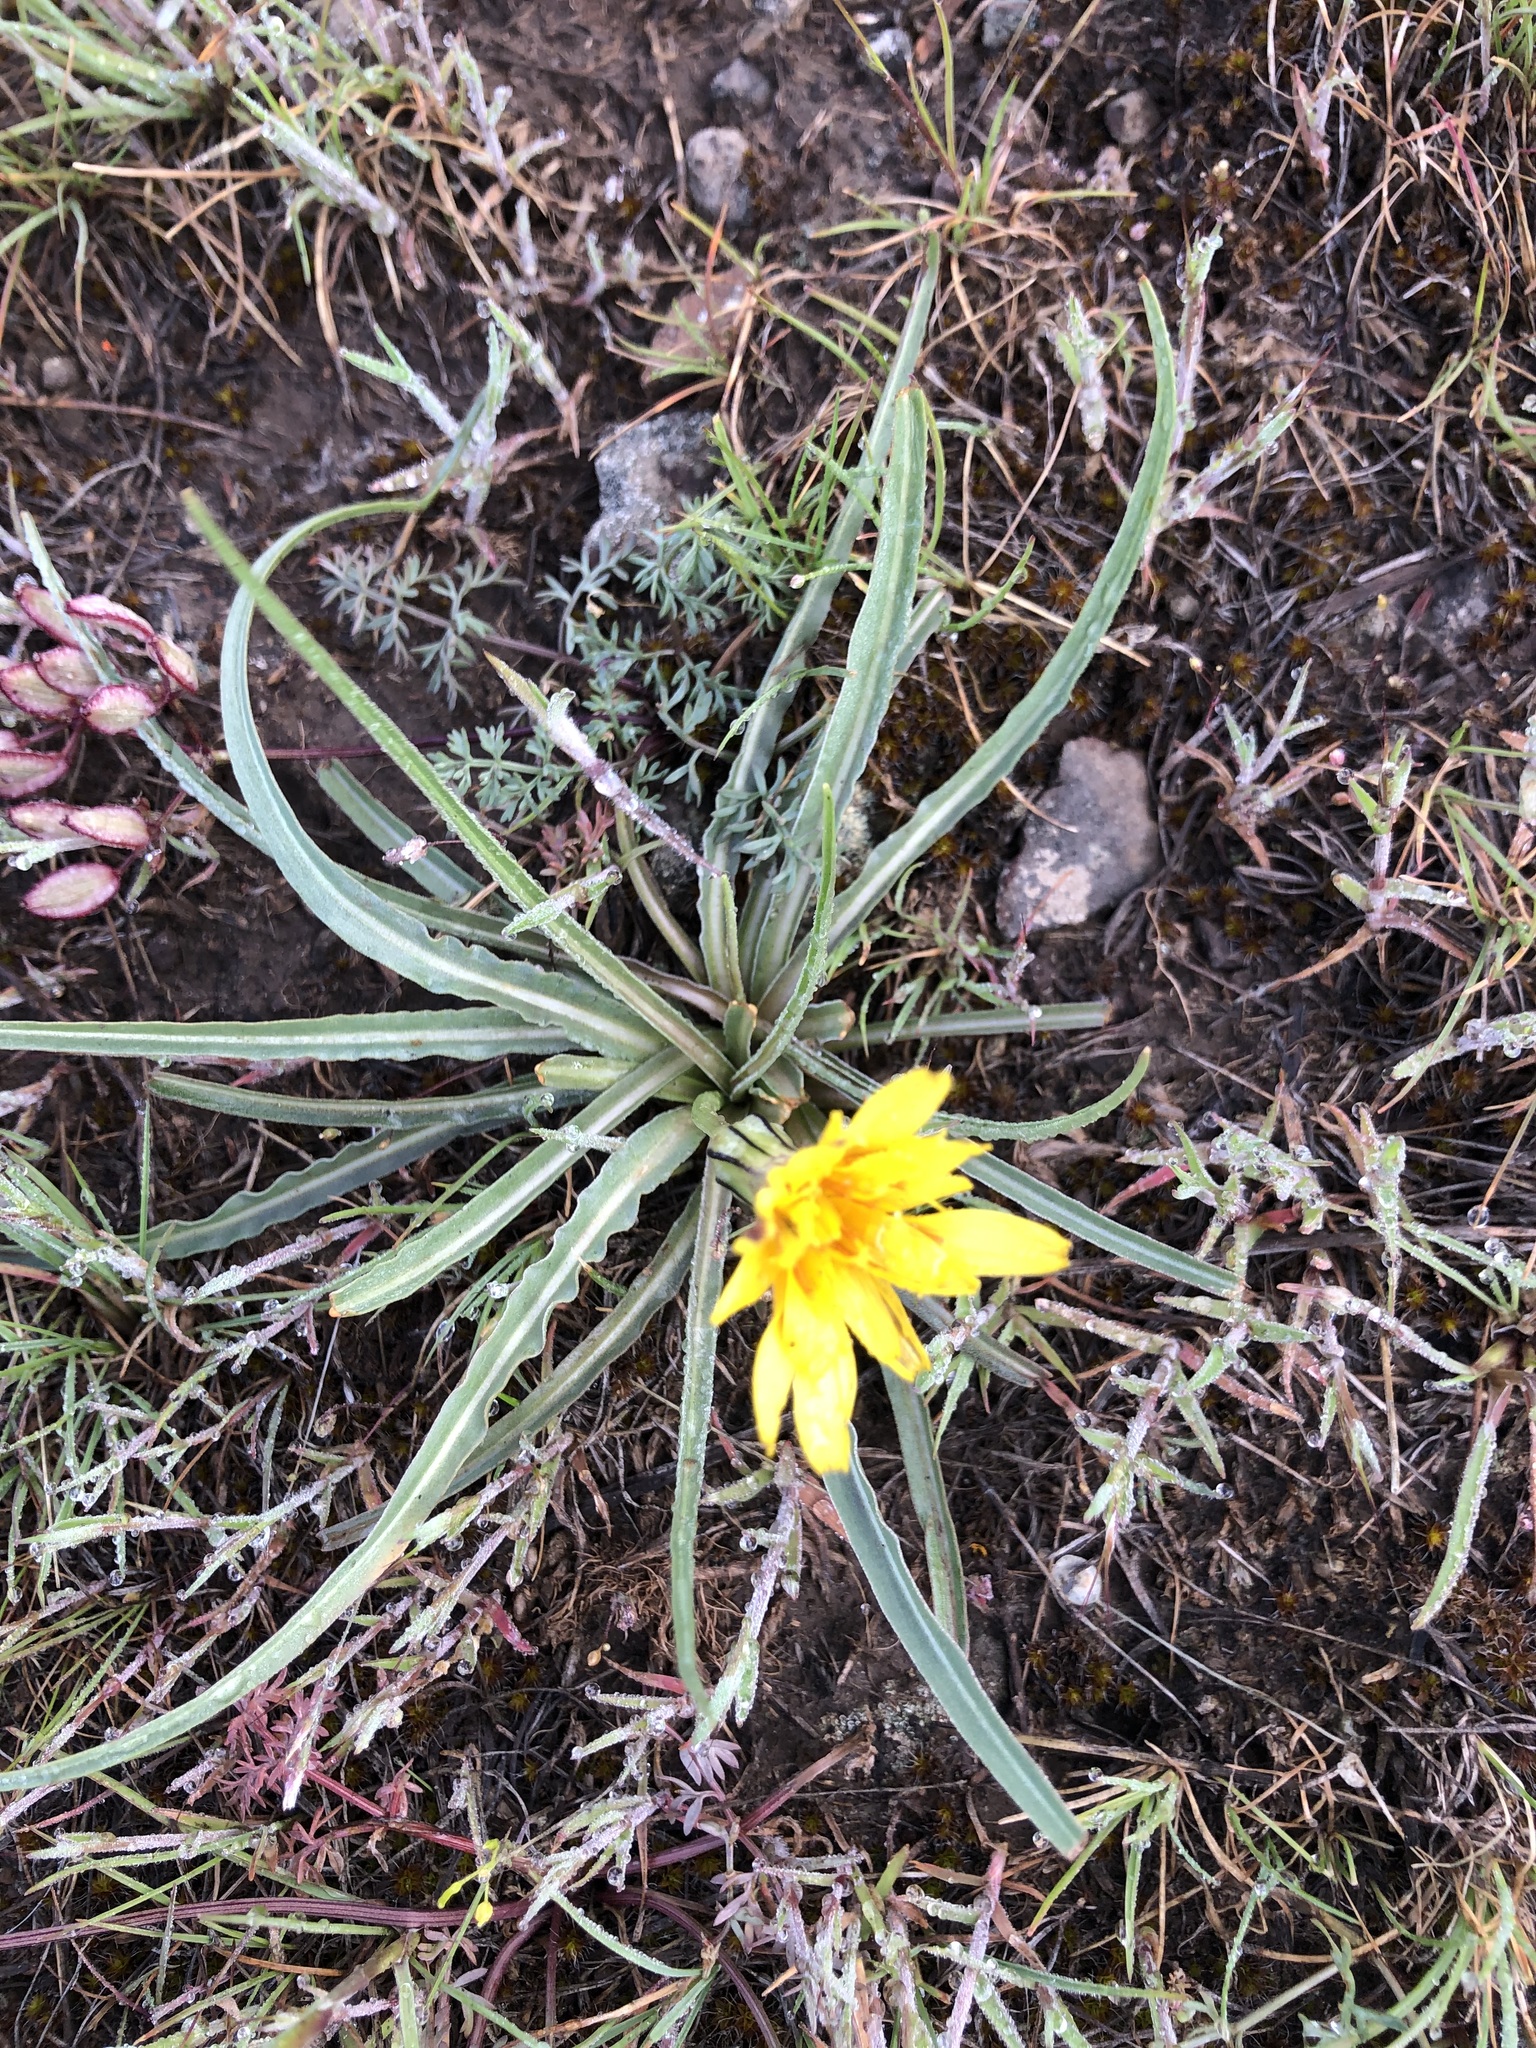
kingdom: Plantae
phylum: Tracheophyta
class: Magnoliopsida
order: Asterales
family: Asteraceae
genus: Microseris
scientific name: Microseris troximoides
